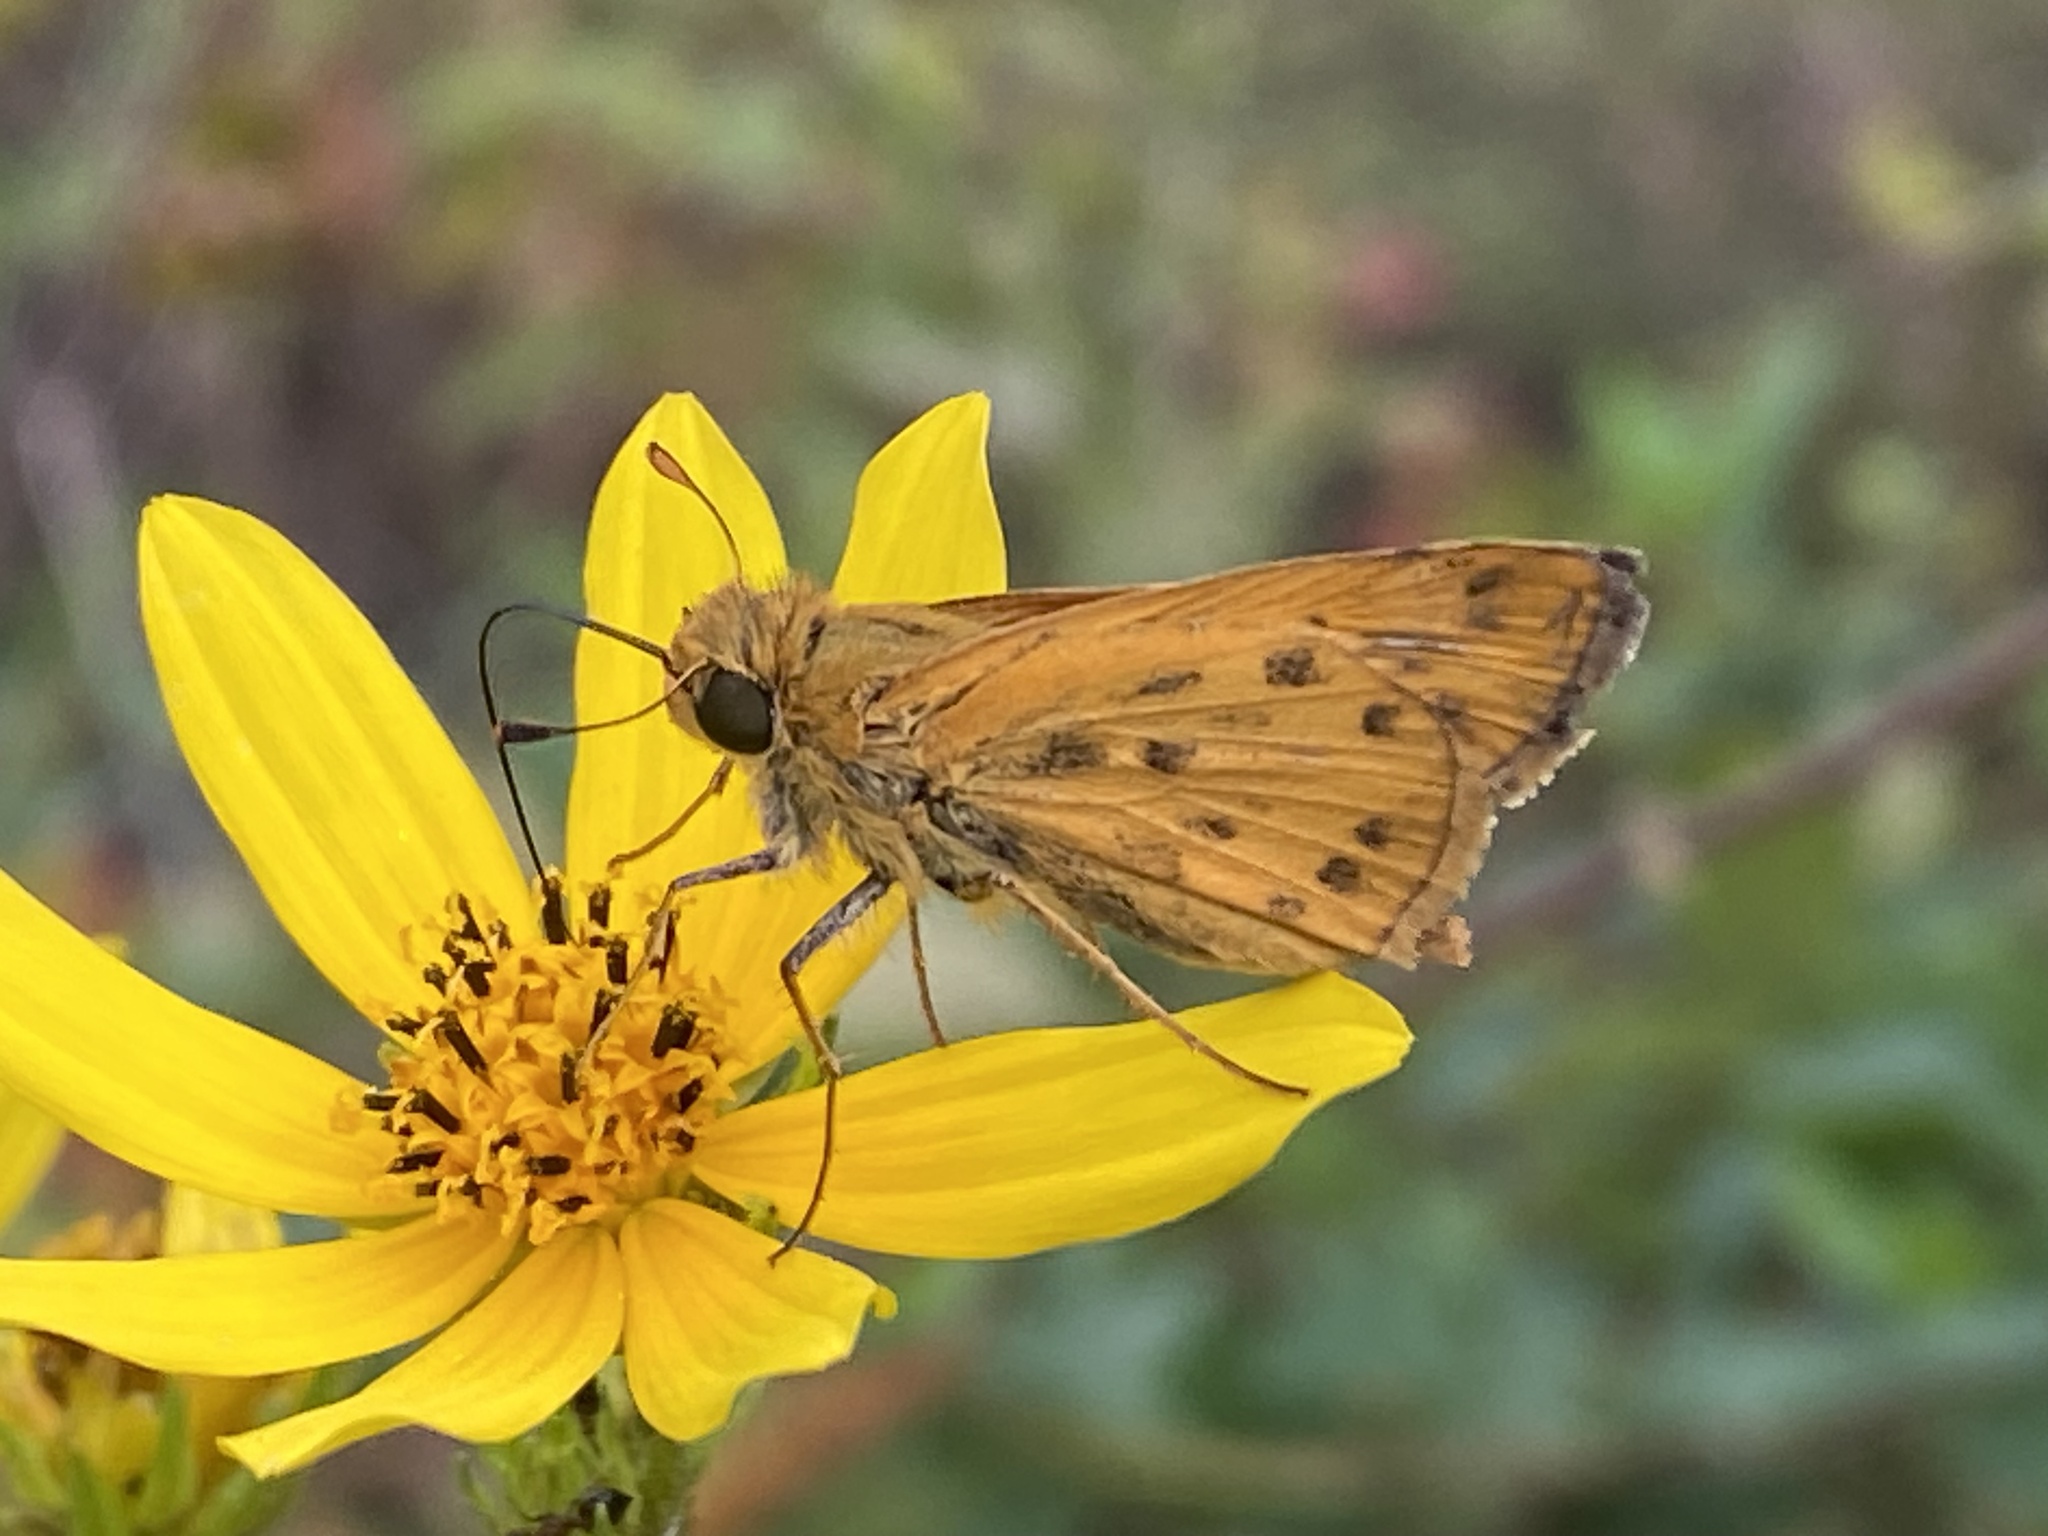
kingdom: Animalia
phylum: Arthropoda
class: Insecta
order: Lepidoptera
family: Hesperiidae
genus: Hylephila
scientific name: Hylephila phyleus
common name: Fiery skipper
